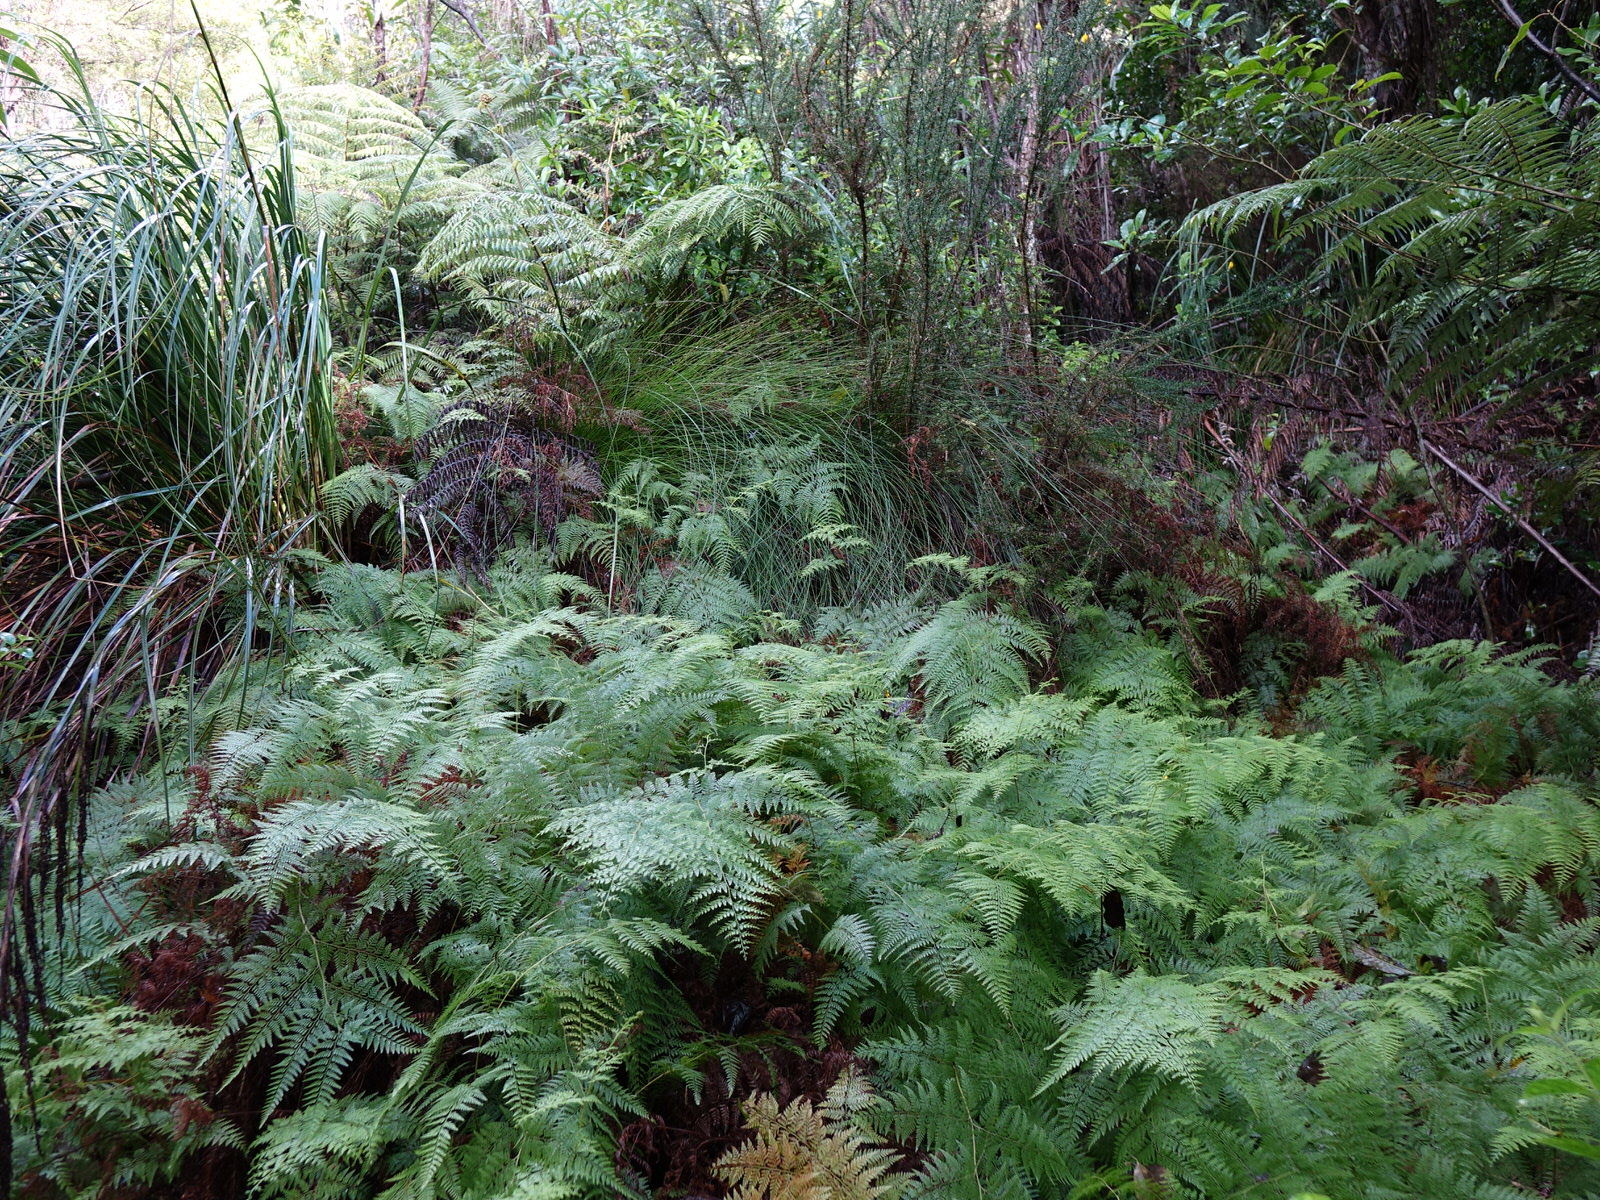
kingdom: Plantae
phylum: Tracheophyta
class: Polypodiopsida
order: Polypodiales
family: Dennstaedtiaceae
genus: Paesia
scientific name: Paesia scaberula
